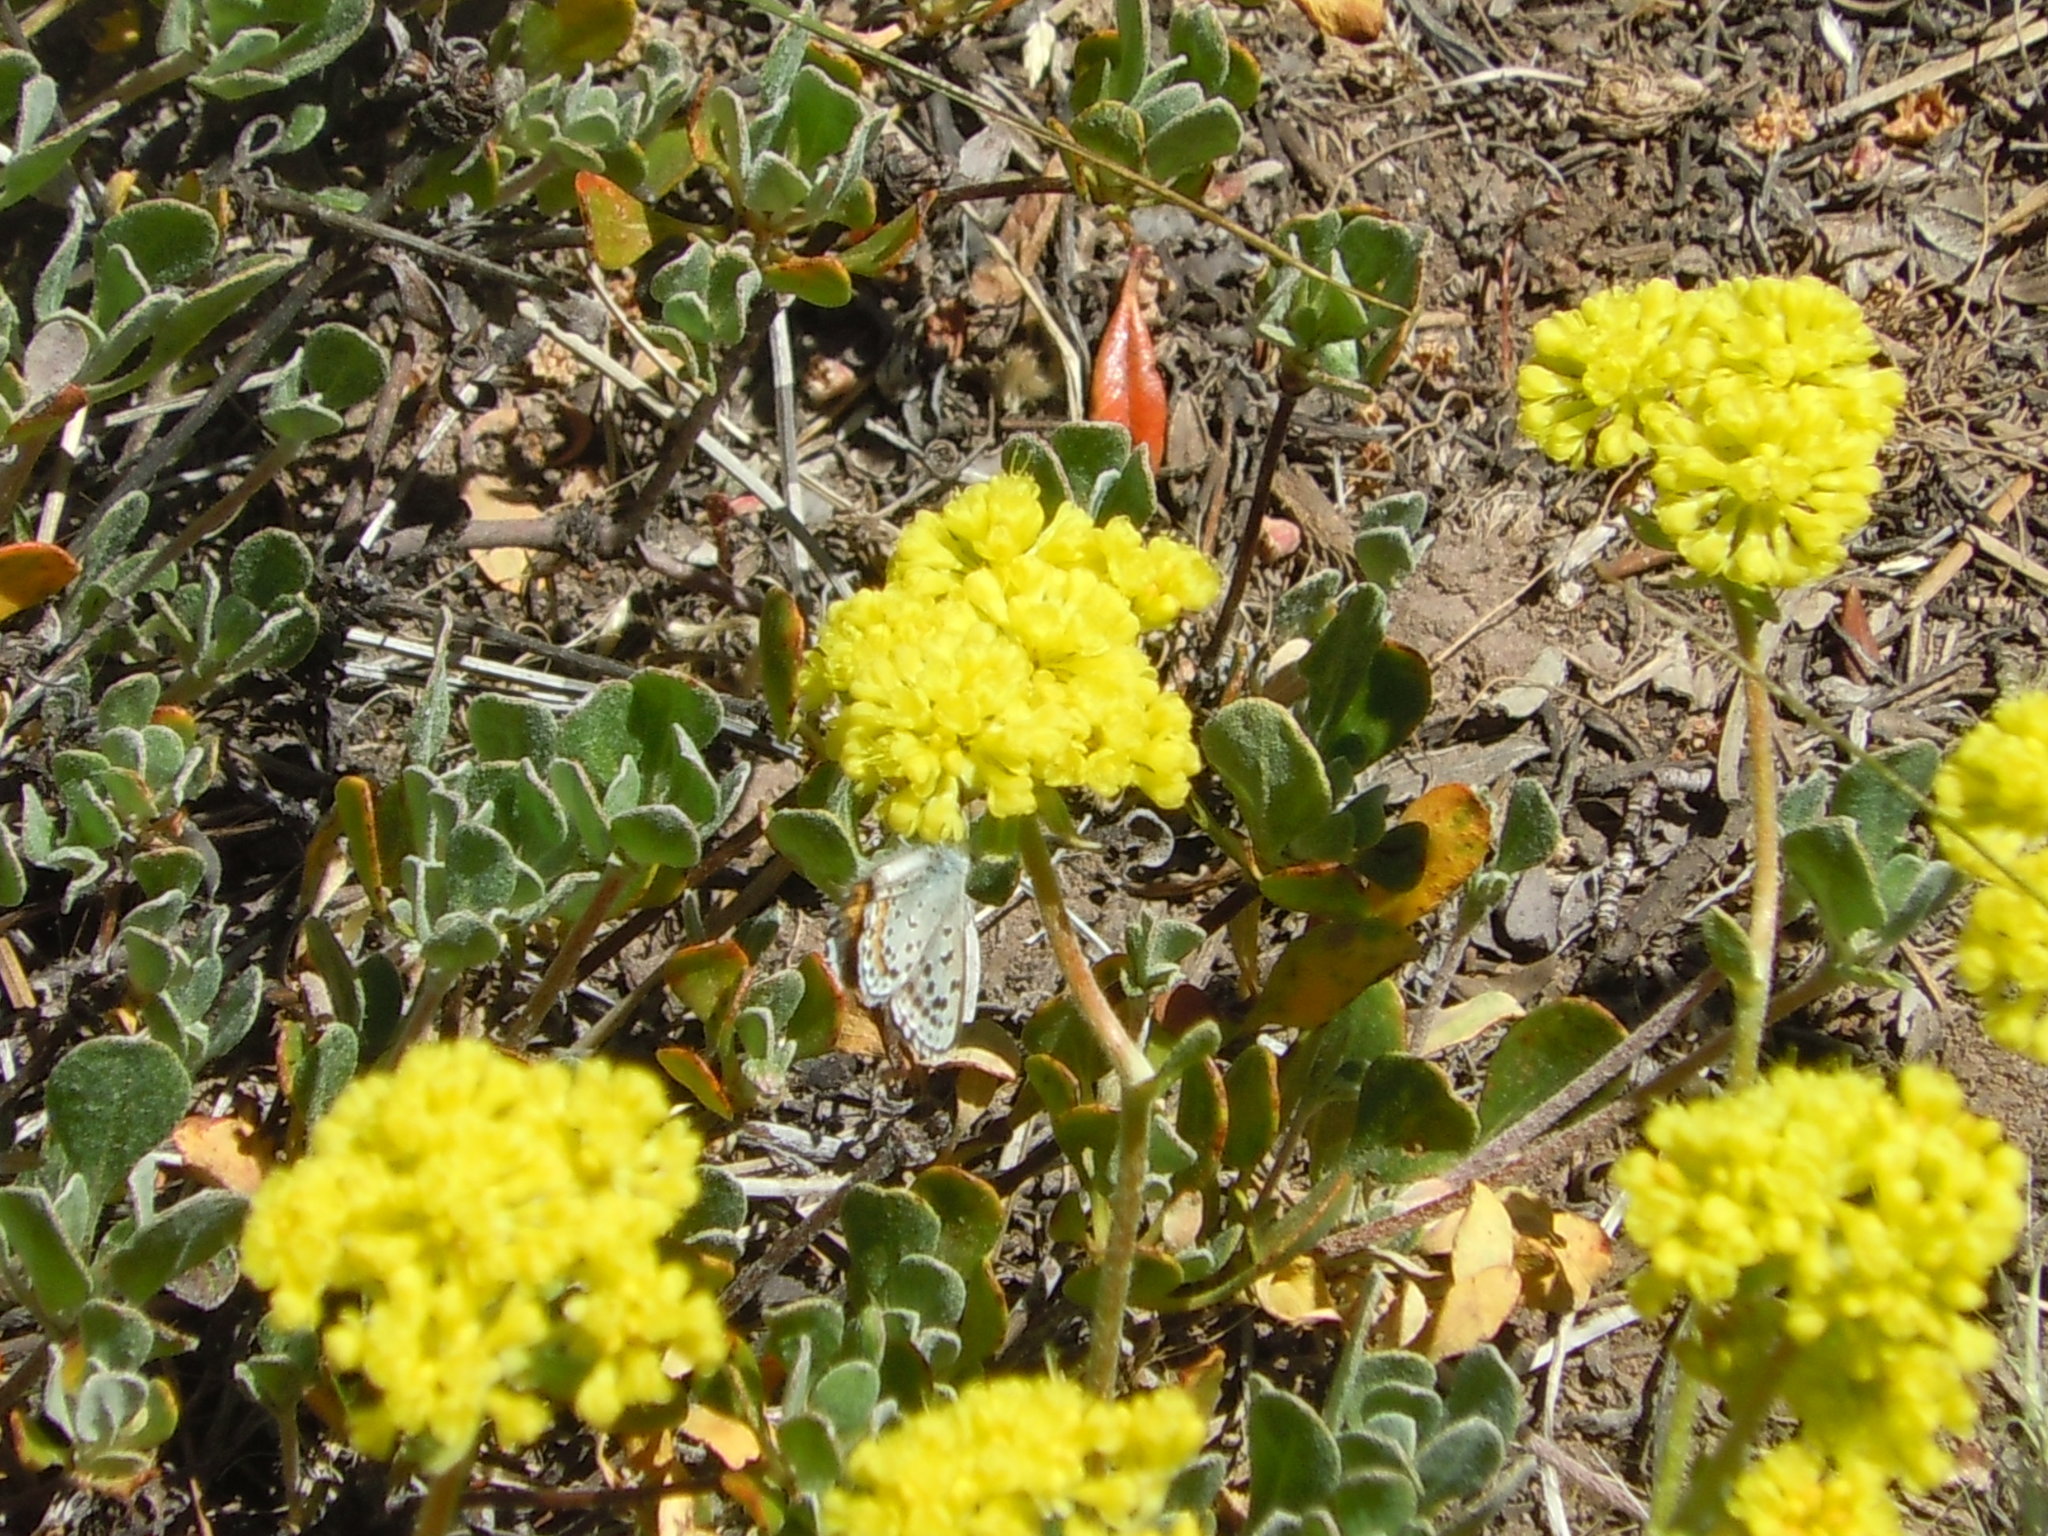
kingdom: Plantae
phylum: Tracheophyta
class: Magnoliopsida
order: Caryophyllales
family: Polygonaceae
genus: Eriogonum
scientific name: Eriogonum umbellatum
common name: Sulfur-buckwheat
